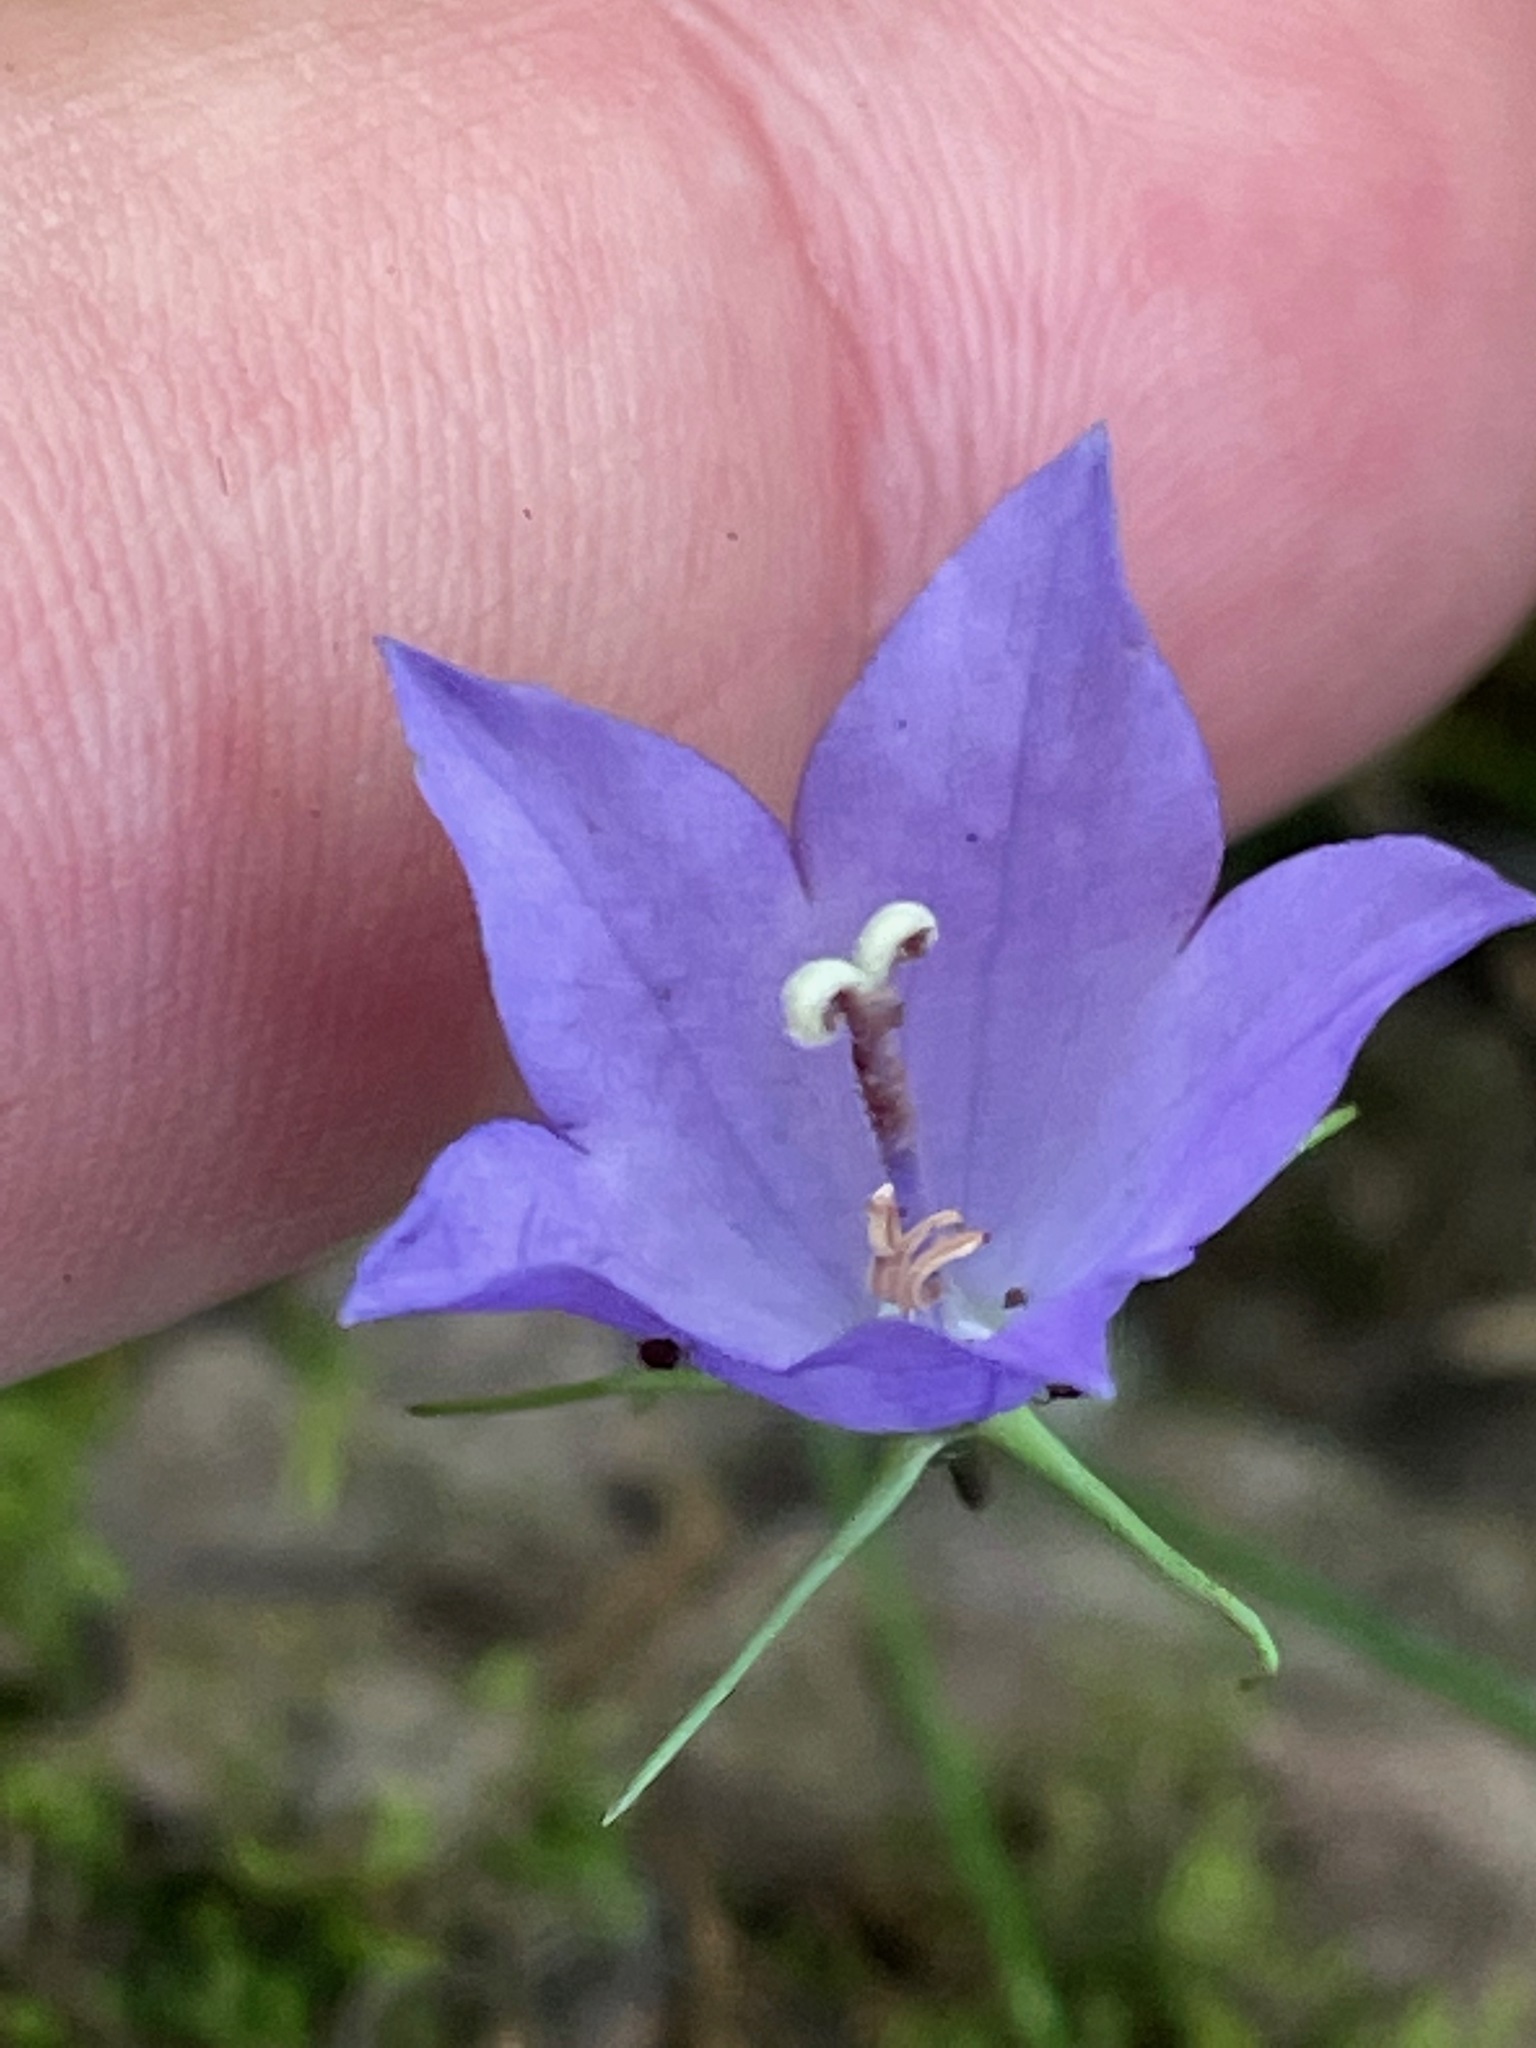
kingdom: Plantae
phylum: Tracheophyta
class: Magnoliopsida
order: Asterales
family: Campanulaceae
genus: Campanula
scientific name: Campanula intercedens
